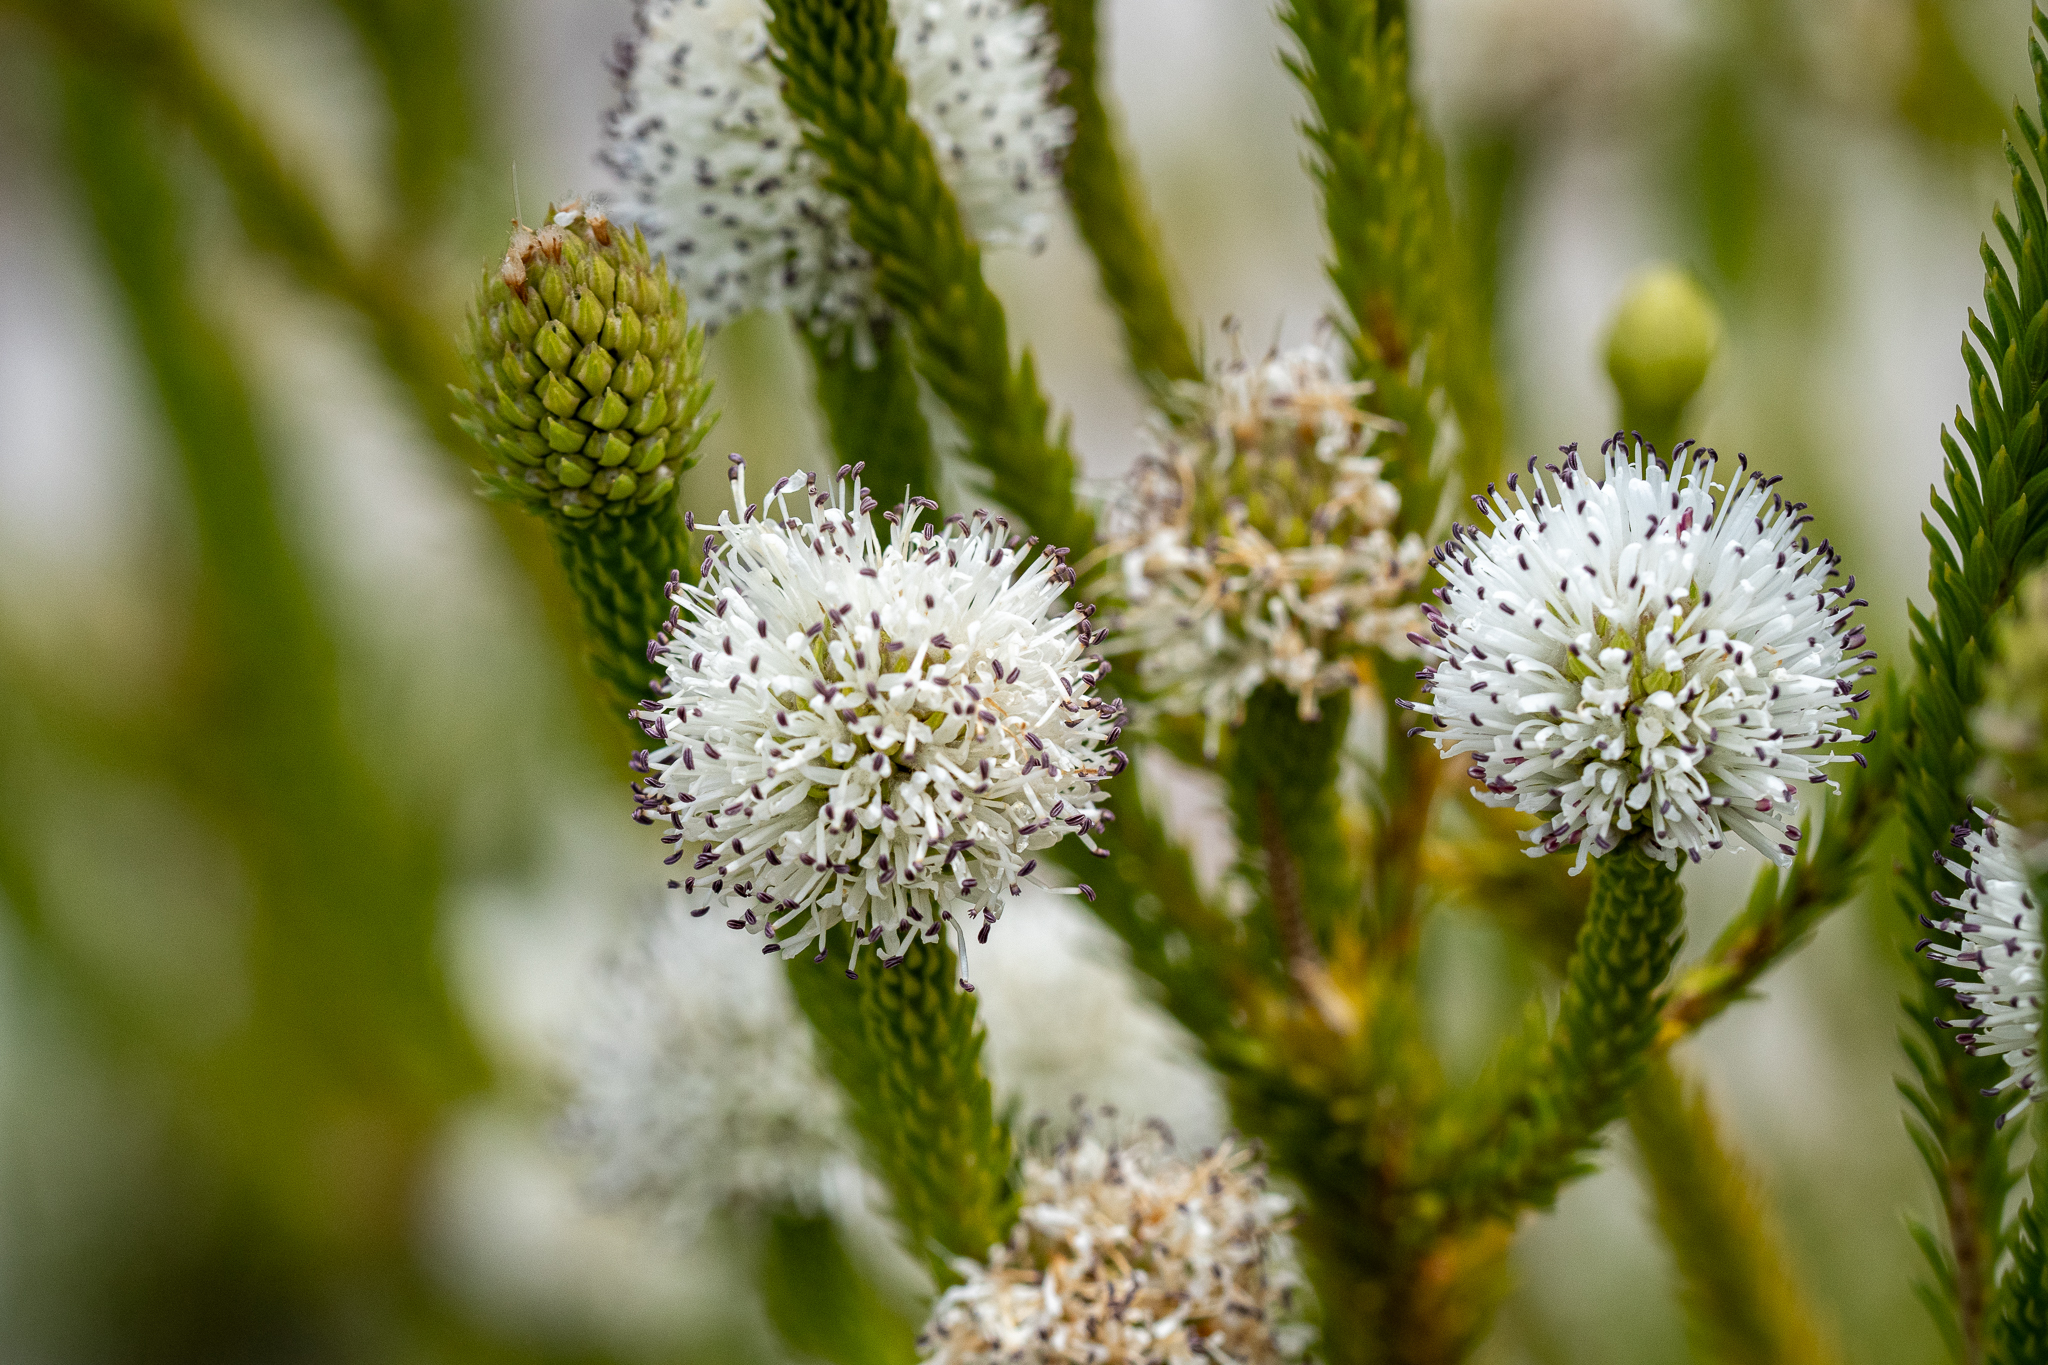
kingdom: Plantae
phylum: Tracheophyta
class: Magnoliopsida
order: Lamiales
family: Stilbaceae
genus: Stilbe
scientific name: Stilbe albiflora
